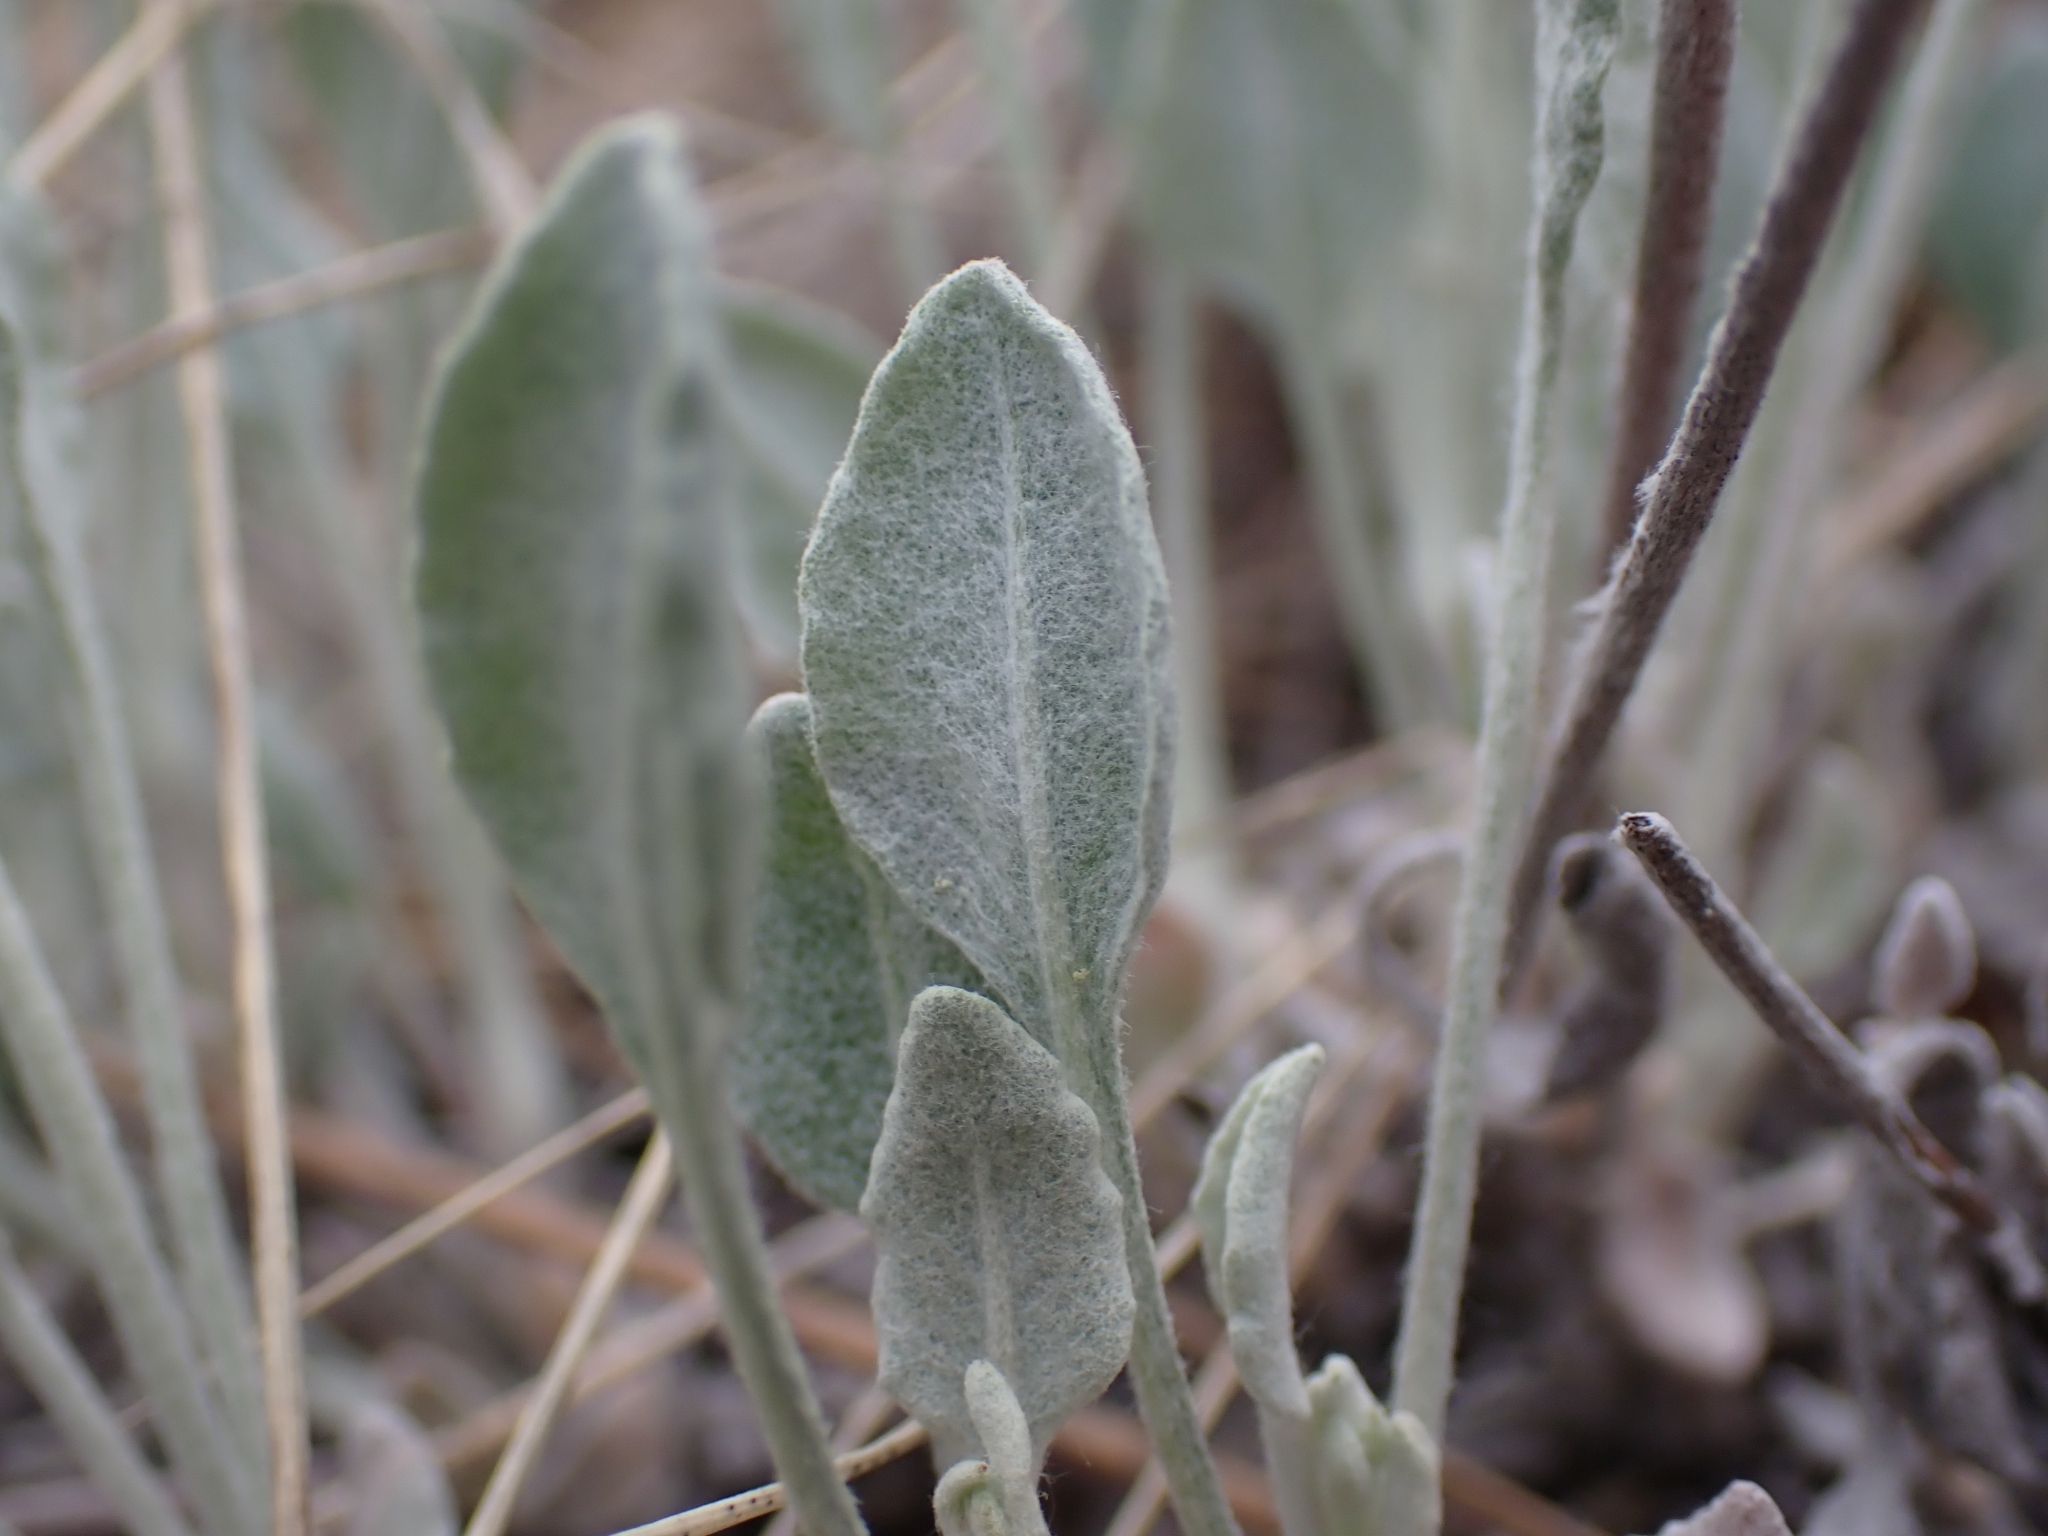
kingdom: Plantae
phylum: Tracheophyta
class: Magnoliopsida
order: Caryophyllales
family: Polygonaceae
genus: Eriogonum
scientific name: Eriogonum niveum
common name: Snow wild buckwheat
